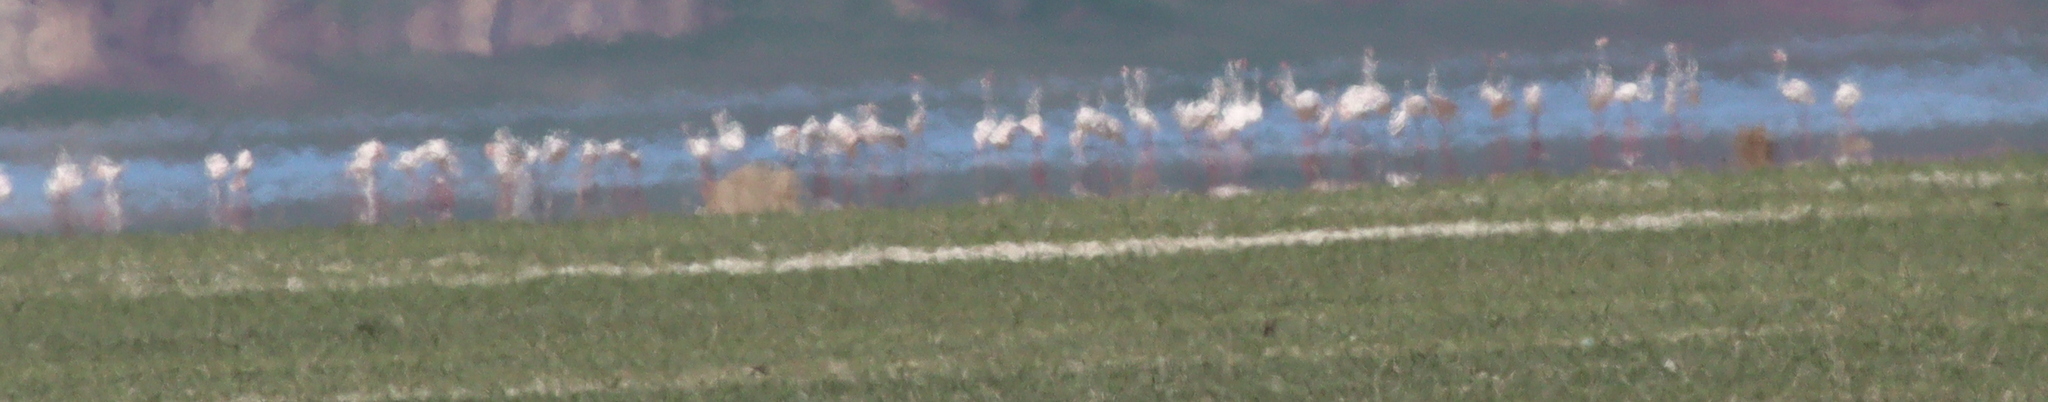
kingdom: Animalia
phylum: Chordata
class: Aves
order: Phoenicopteriformes
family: Phoenicopteridae
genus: Phoenicopterus
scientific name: Phoenicopterus roseus
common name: Greater flamingo
